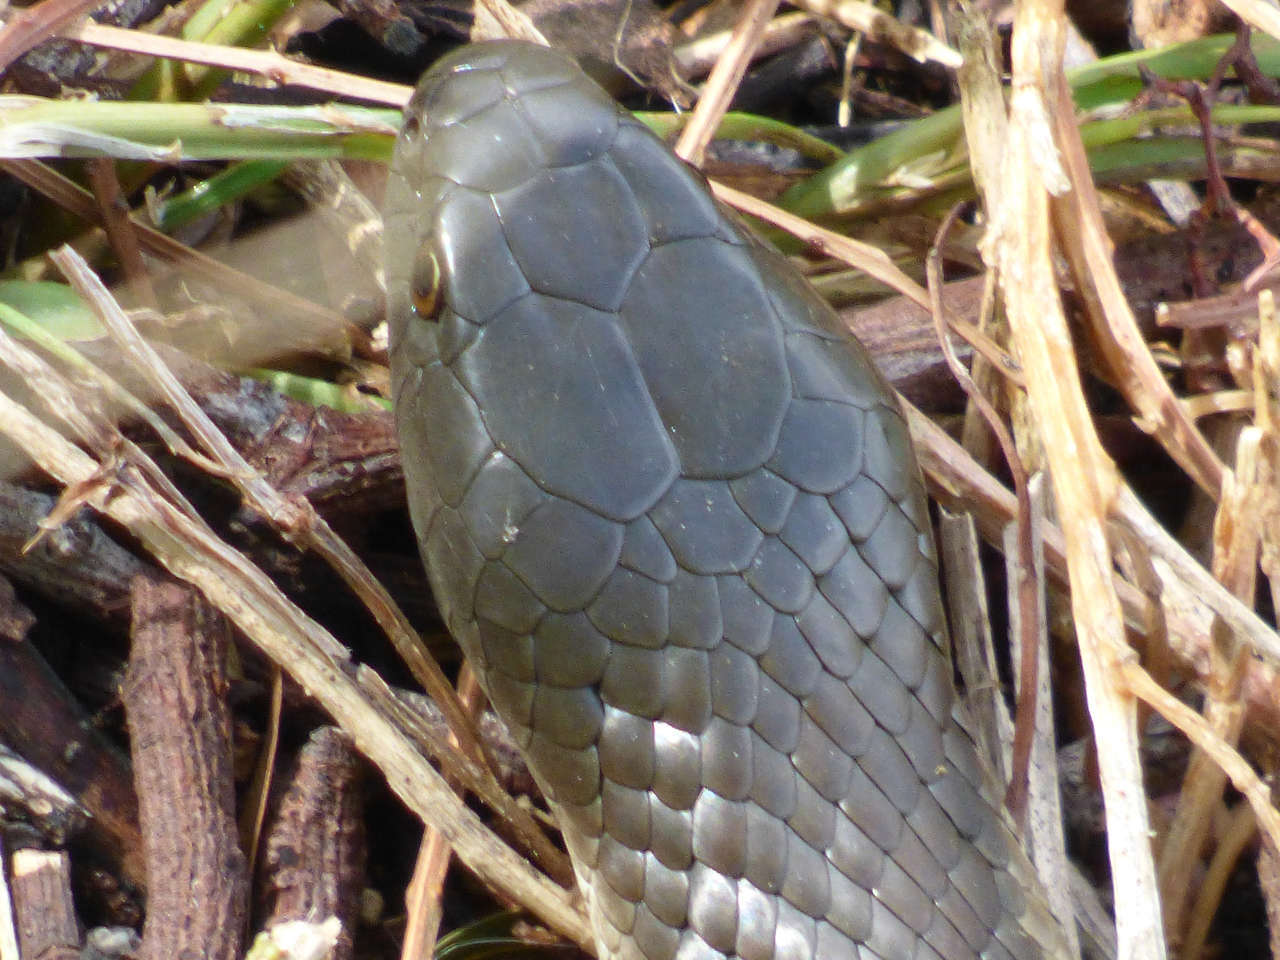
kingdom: Animalia
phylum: Chordata
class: Squamata
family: Elapidae
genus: Notechis
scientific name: Notechis scutatus
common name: Mainland tiger snake
